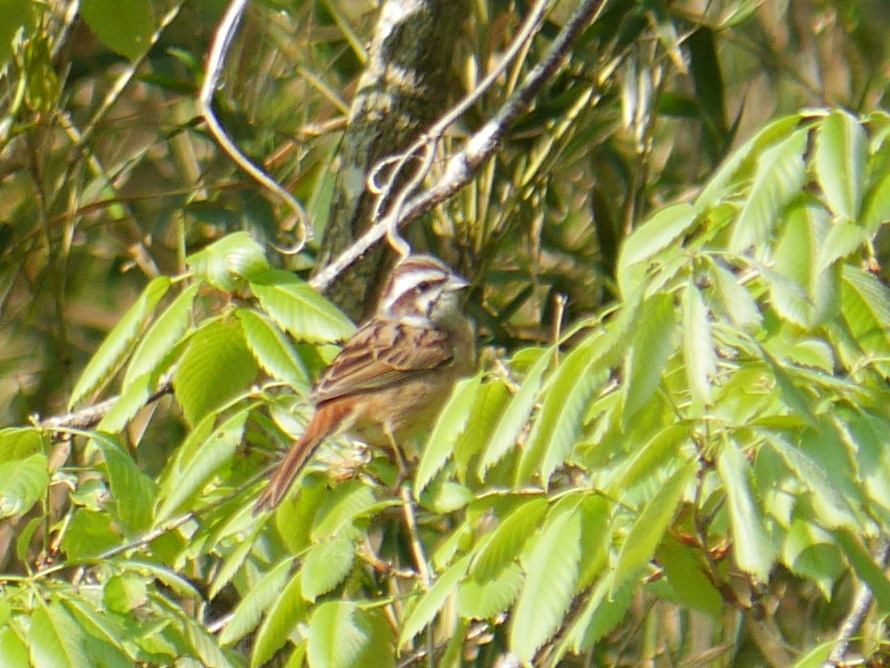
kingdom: Animalia
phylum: Chordata
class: Aves
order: Passeriformes
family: Emberizidae
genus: Emberiza
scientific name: Emberiza cioides
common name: Meadow bunting
